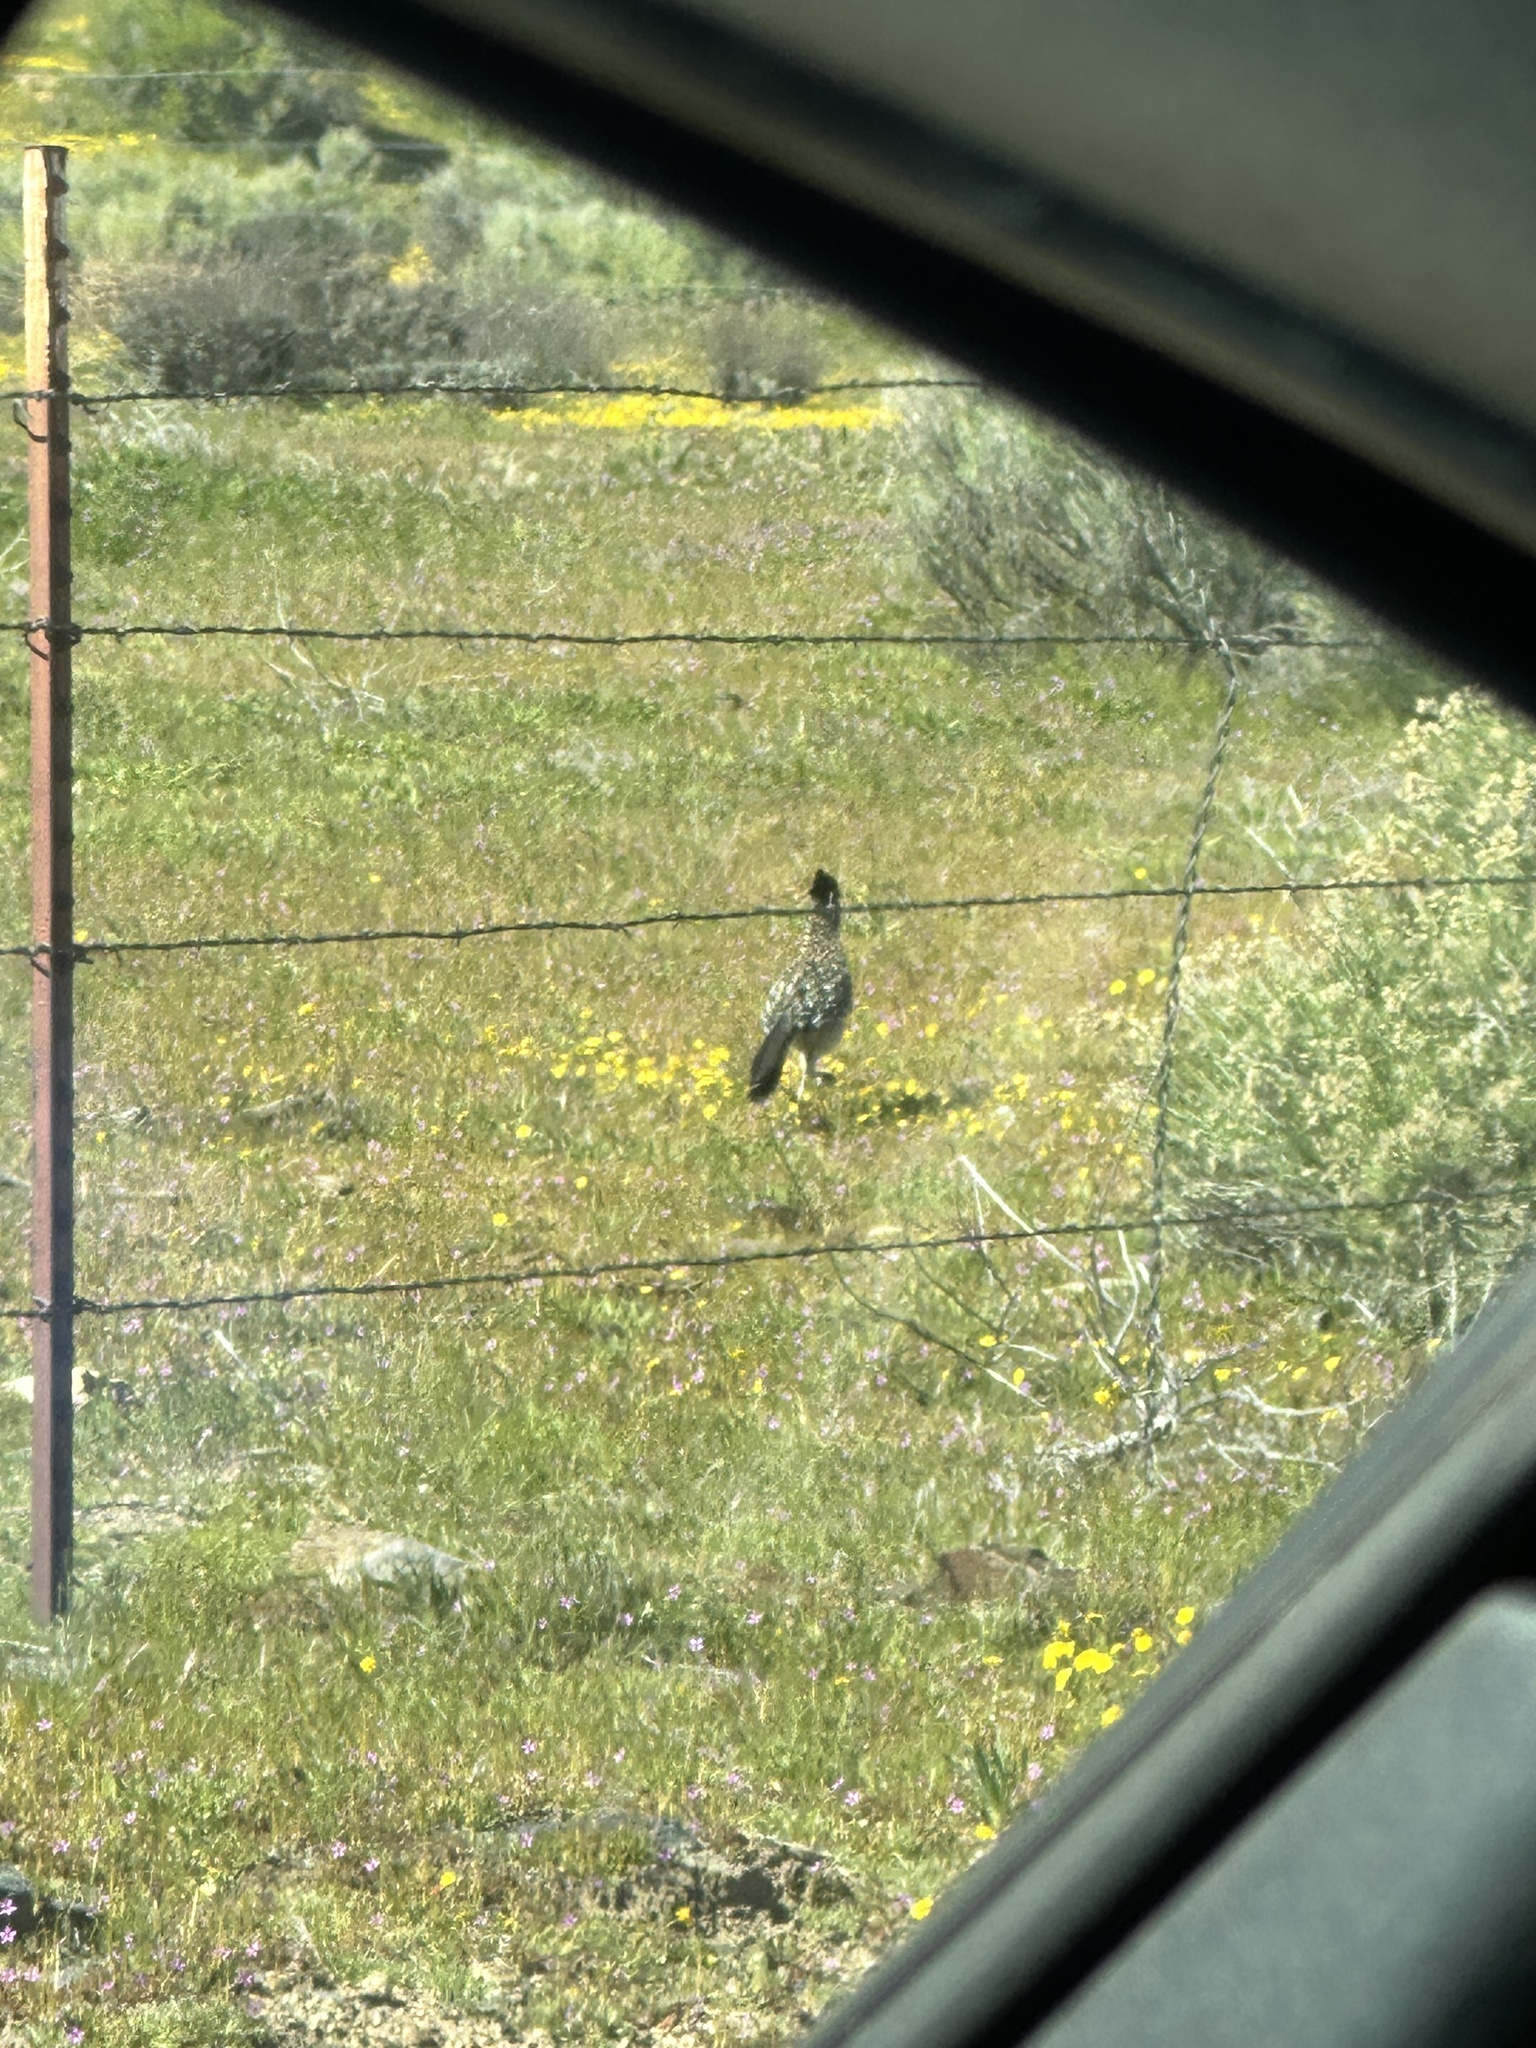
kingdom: Animalia
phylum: Chordata
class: Aves
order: Cuculiformes
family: Cuculidae
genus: Geococcyx
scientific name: Geococcyx californianus
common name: Greater roadrunner
